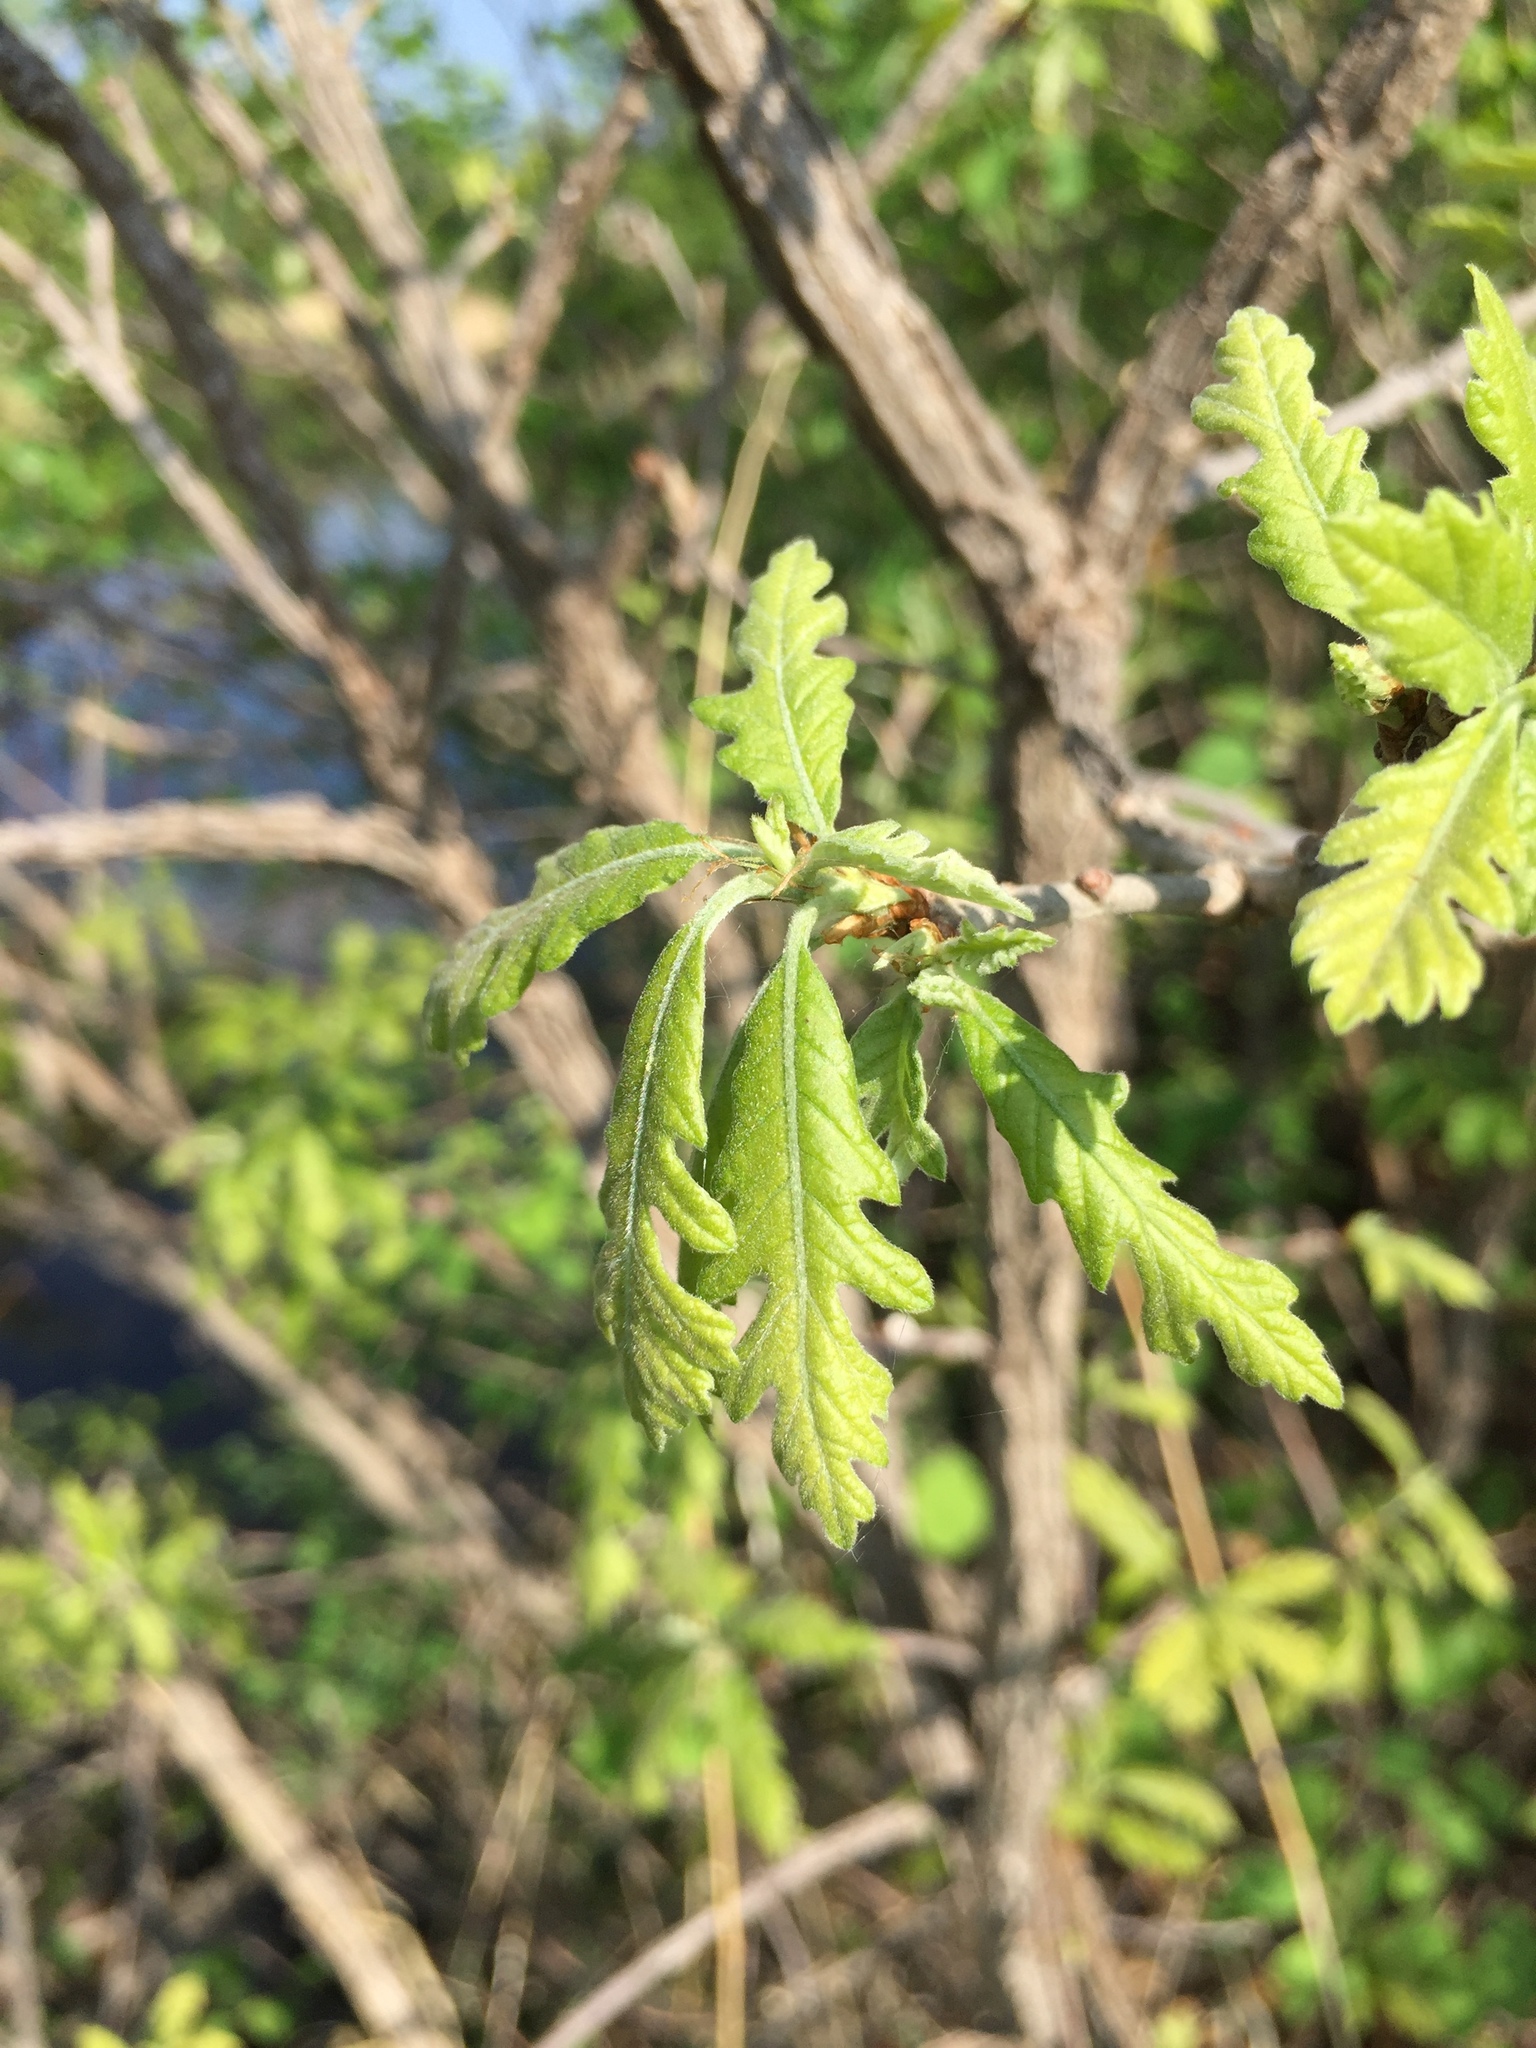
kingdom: Plantae
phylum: Tracheophyta
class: Magnoliopsida
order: Fagales
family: Fagaceae
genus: Quercus
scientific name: Quercus macrocarpa
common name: Bur oak
